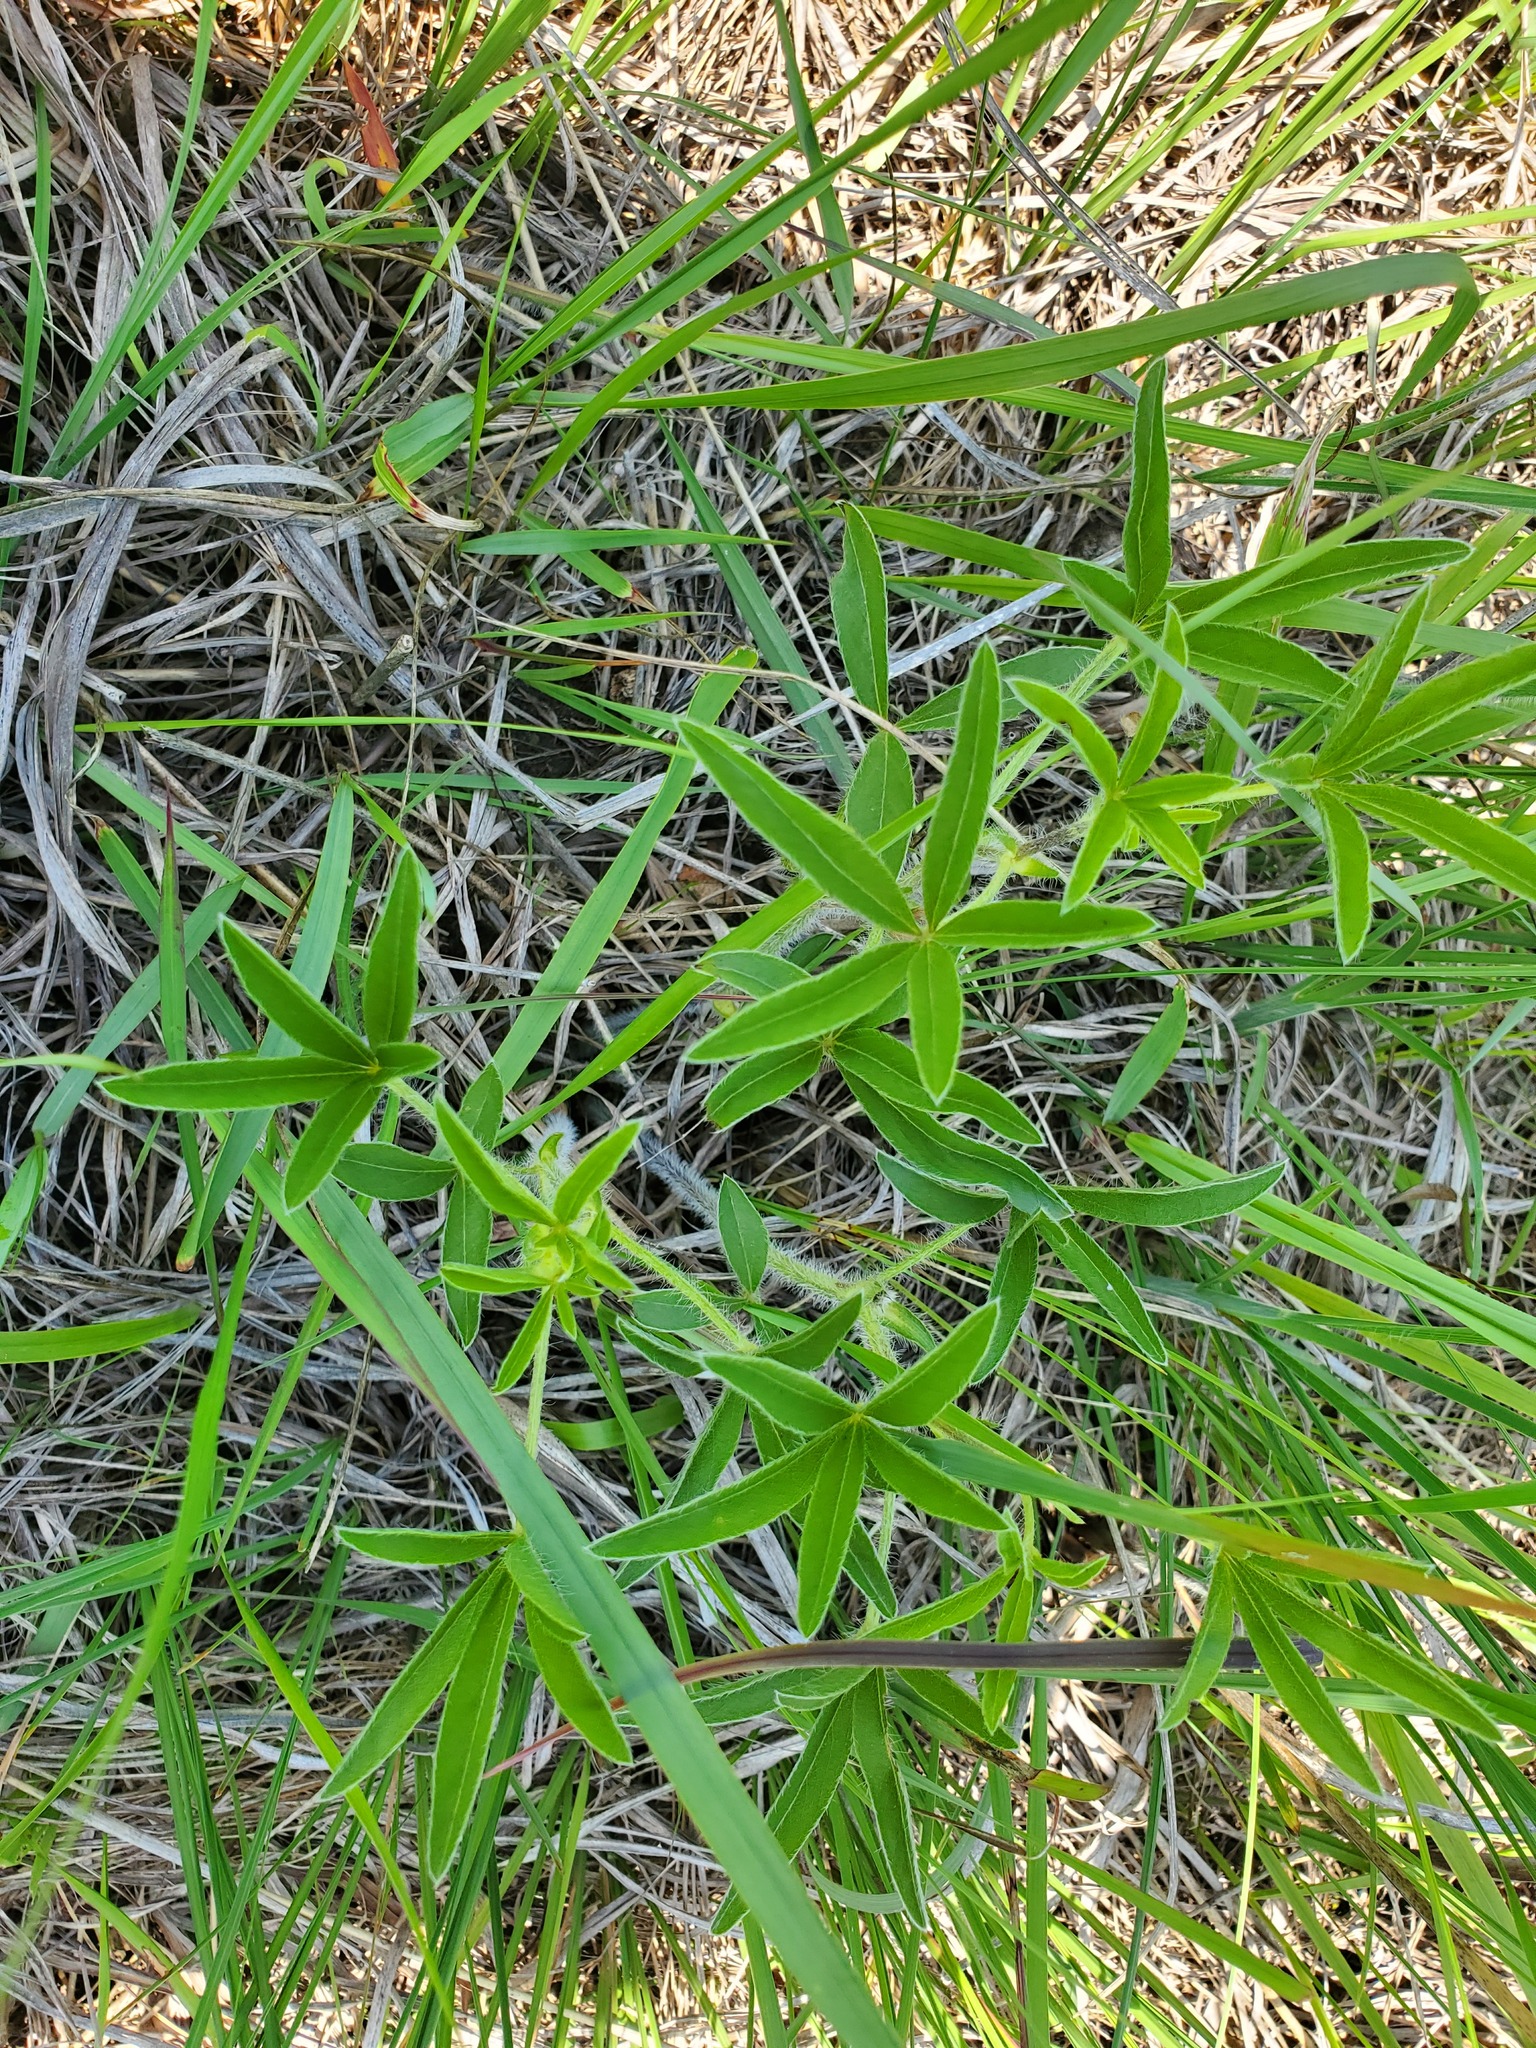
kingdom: Plantae
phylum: Tracheophyta
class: Magnoliopsida
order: Fabales
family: Fabaceae
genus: Pediomelum
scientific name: Pediomelum esculentum
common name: Indian-turnip
